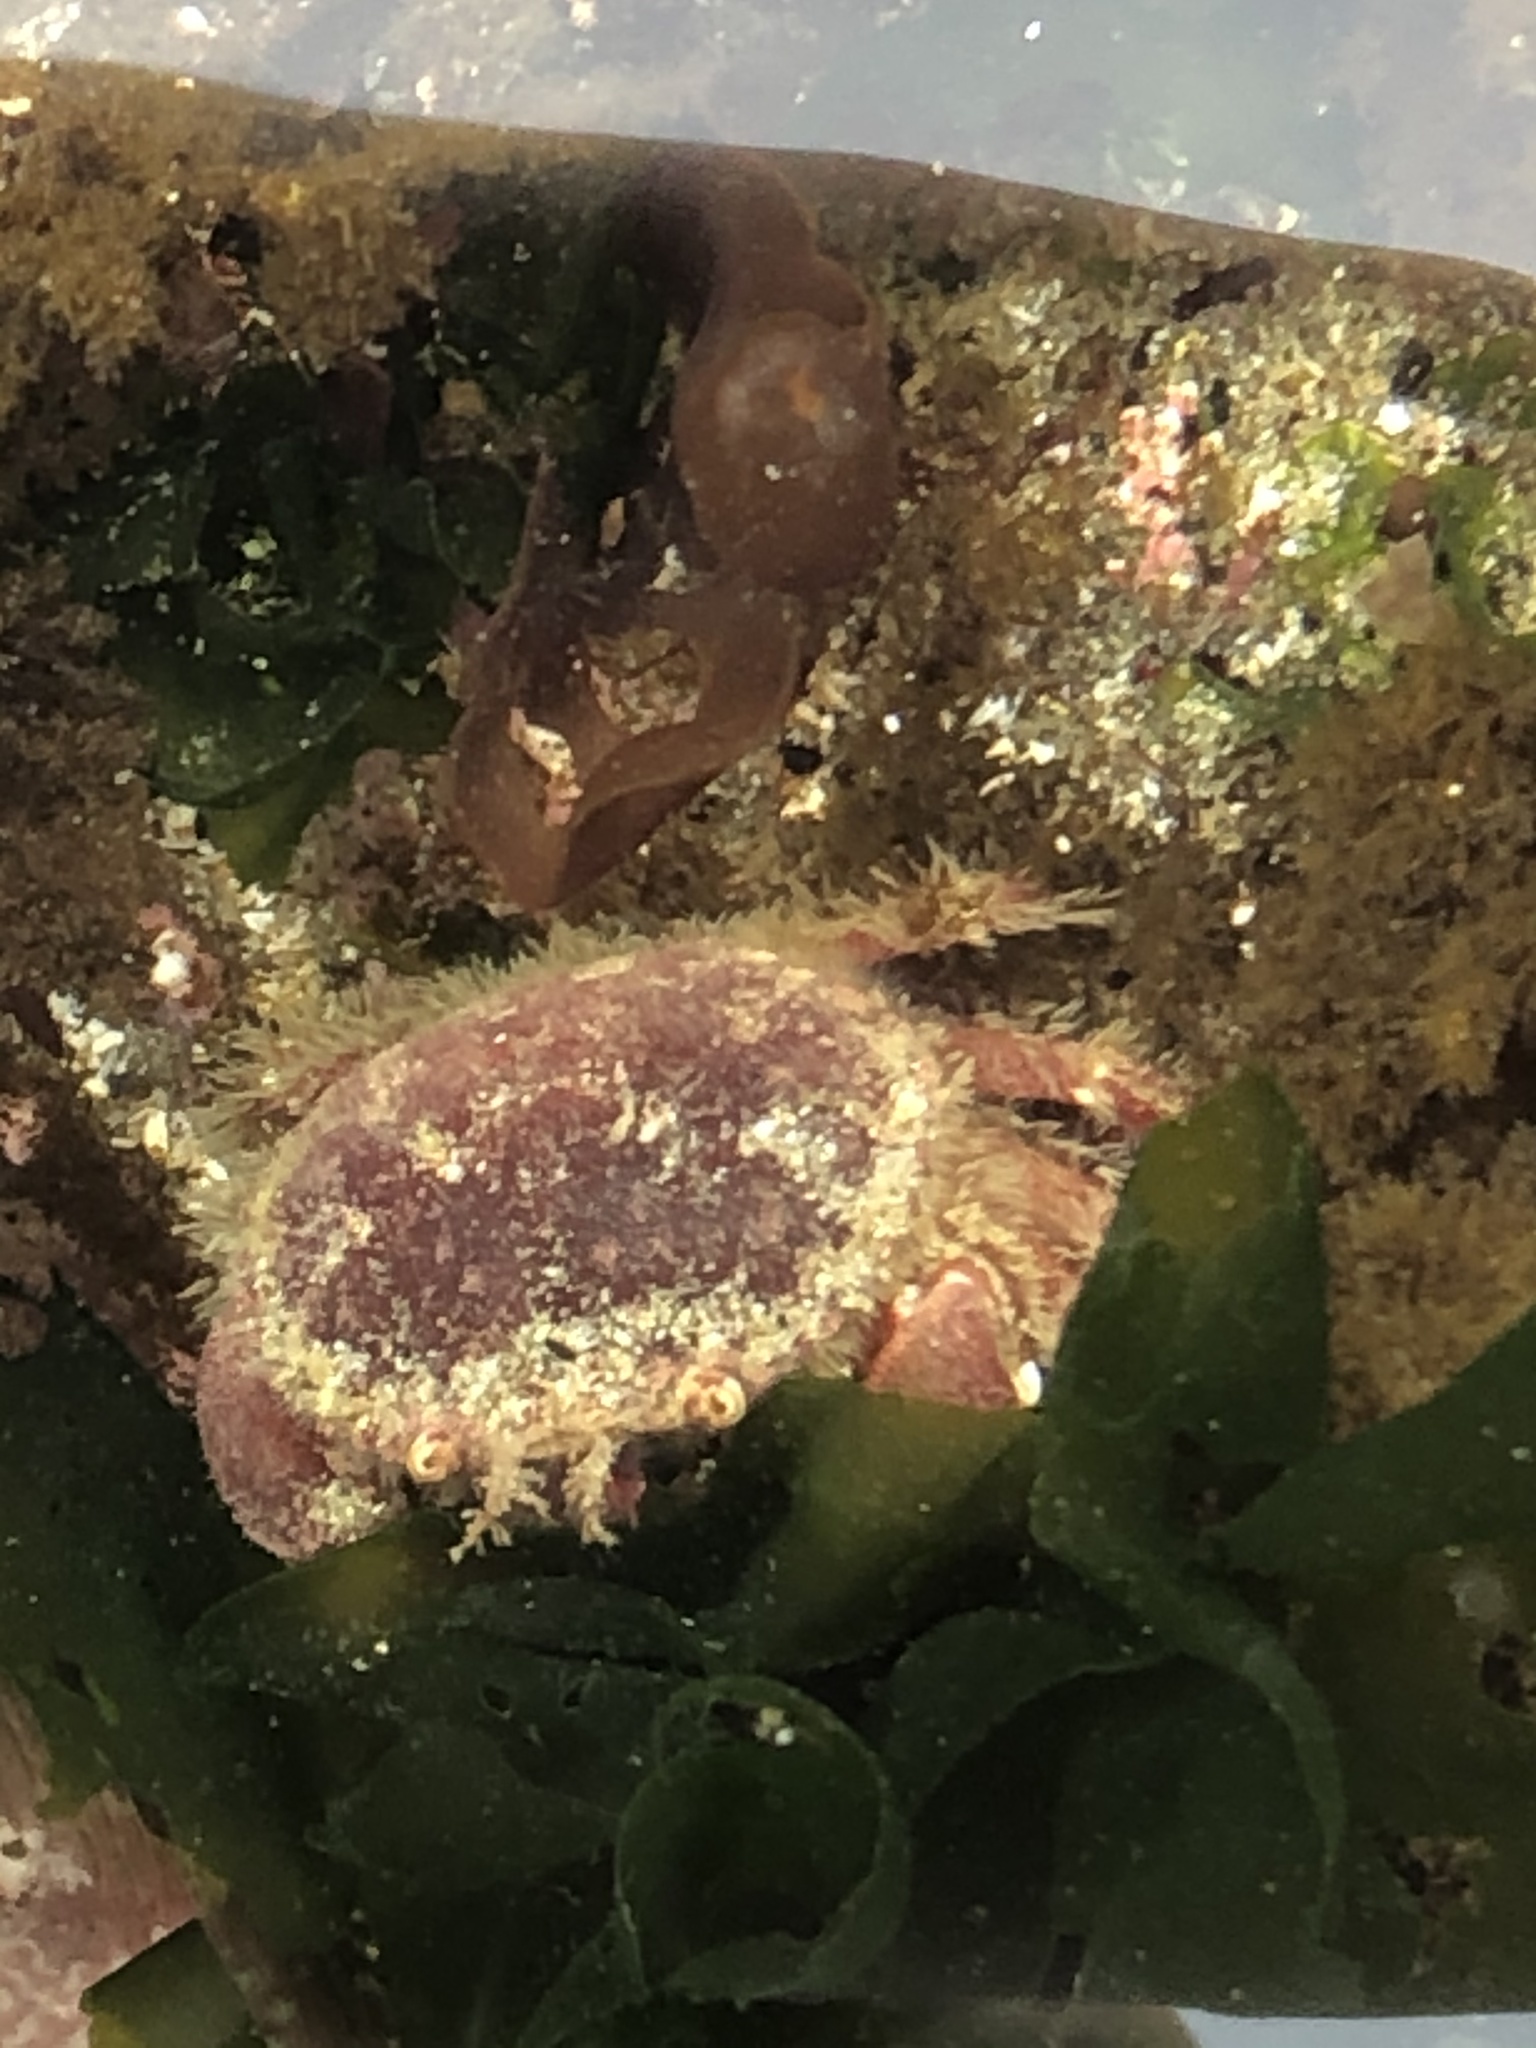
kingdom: Animalia
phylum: Arthropoda
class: Malacostraca
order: Decapoda
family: Cancridae
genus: Glebocarcinus
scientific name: Glebocarcinus oregonensis
